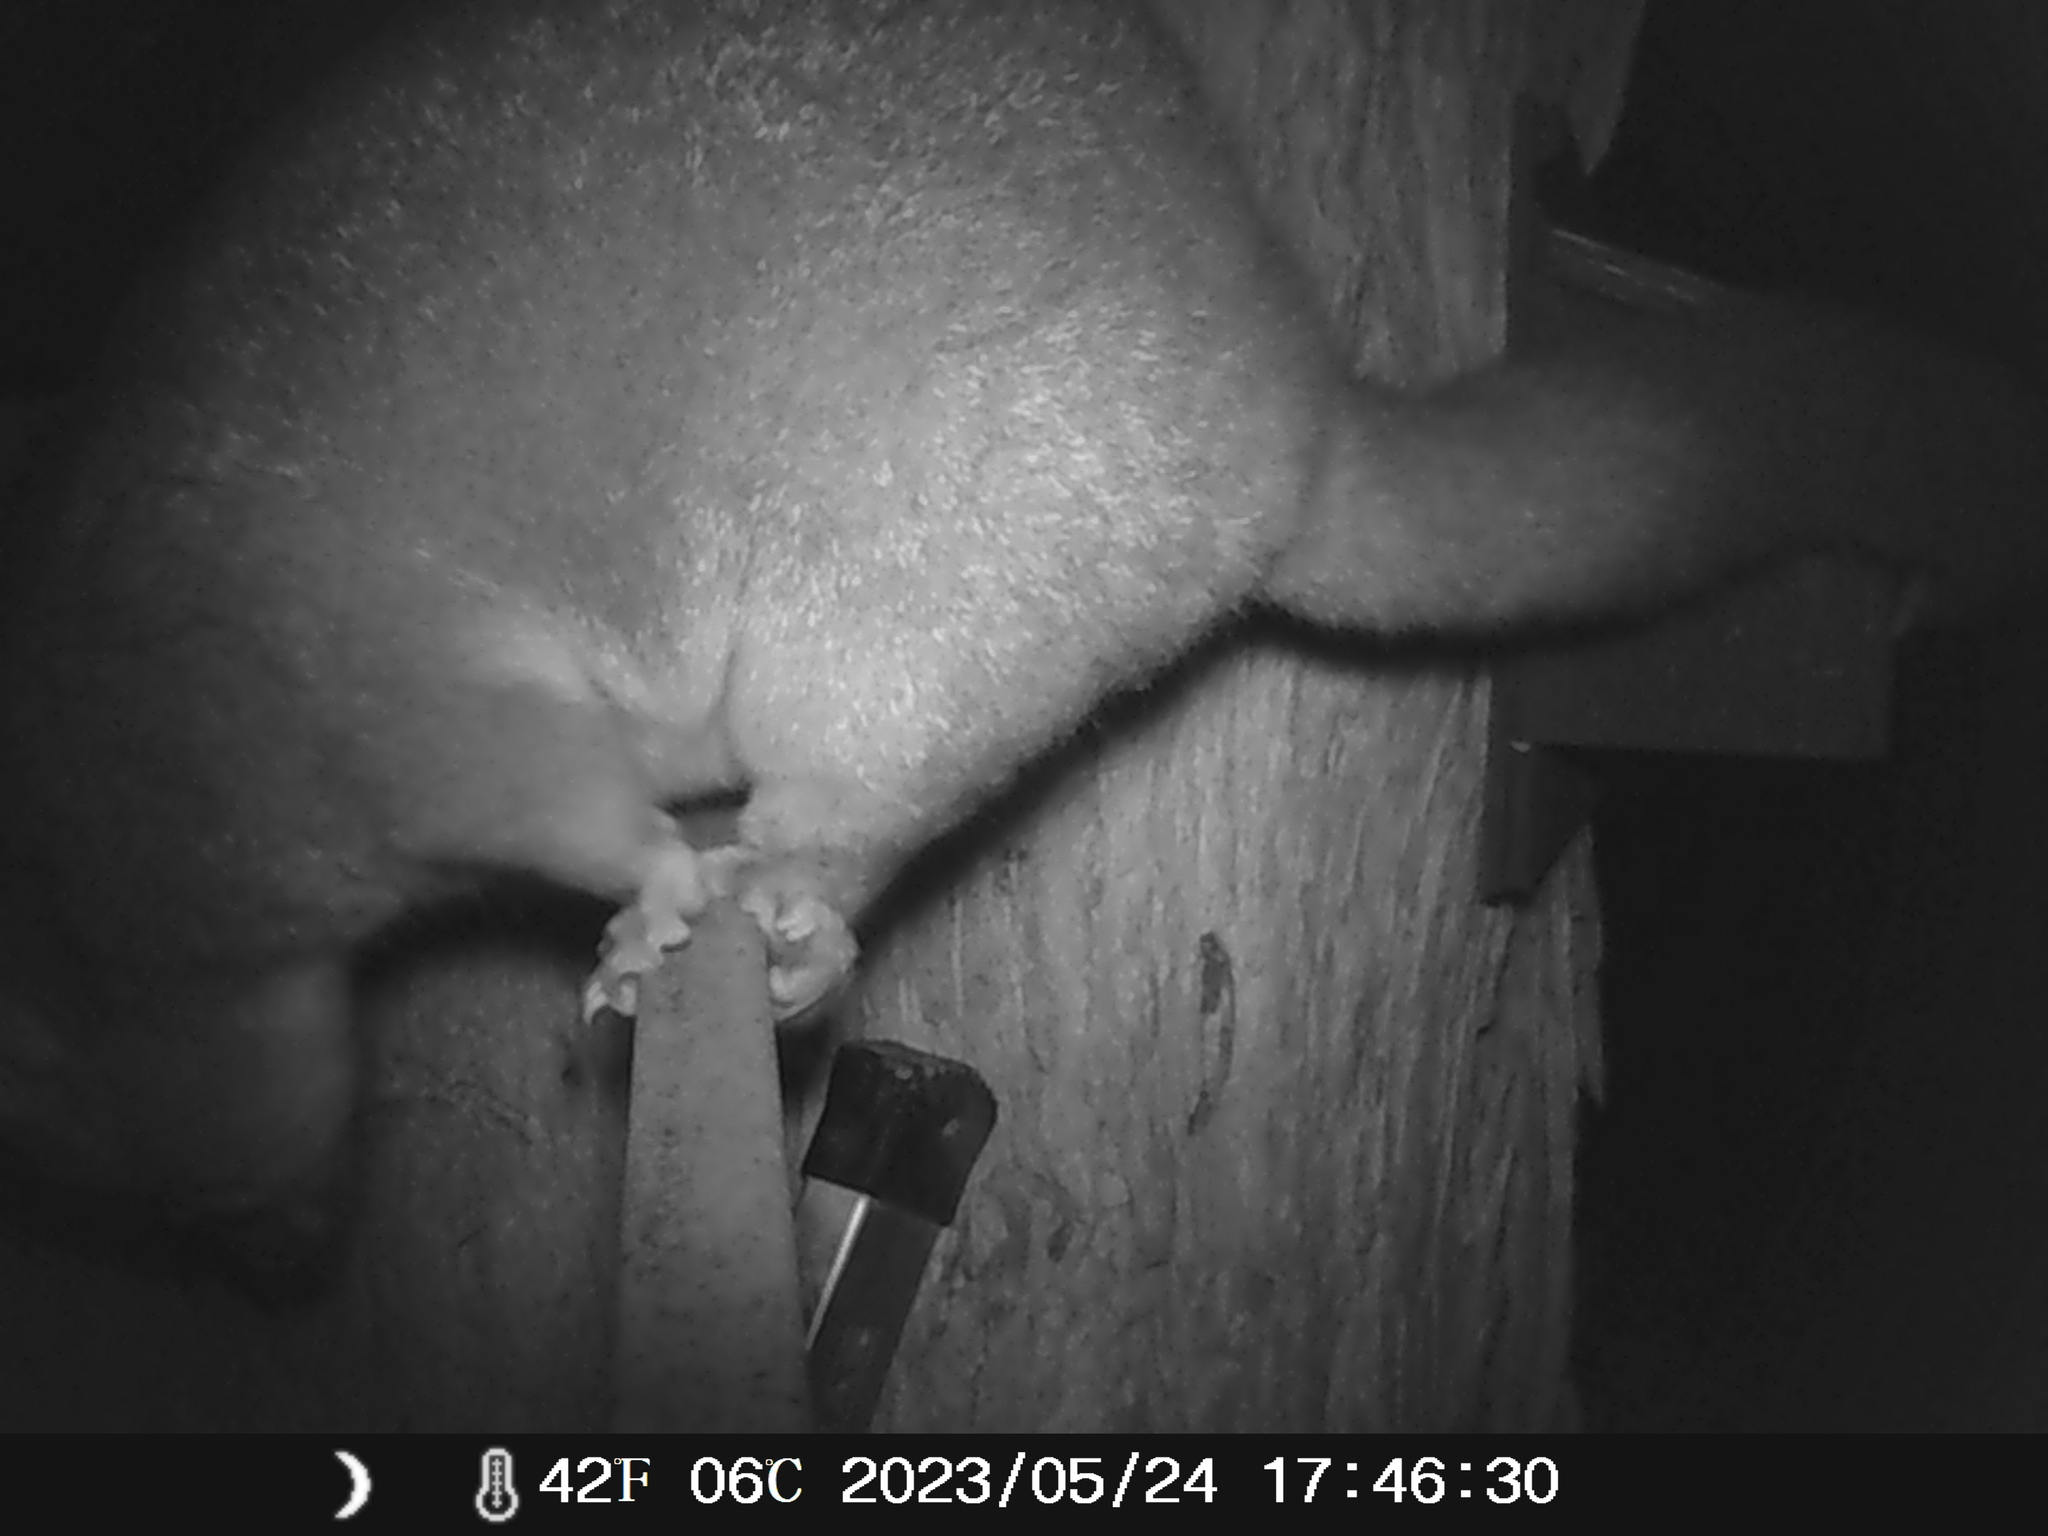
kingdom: Animalia
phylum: Chordata
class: Mammalia
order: Diprotodontia
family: Phalangeridae
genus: Trichosurus
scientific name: Trichosurus vulpecula
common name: Common brushtail
